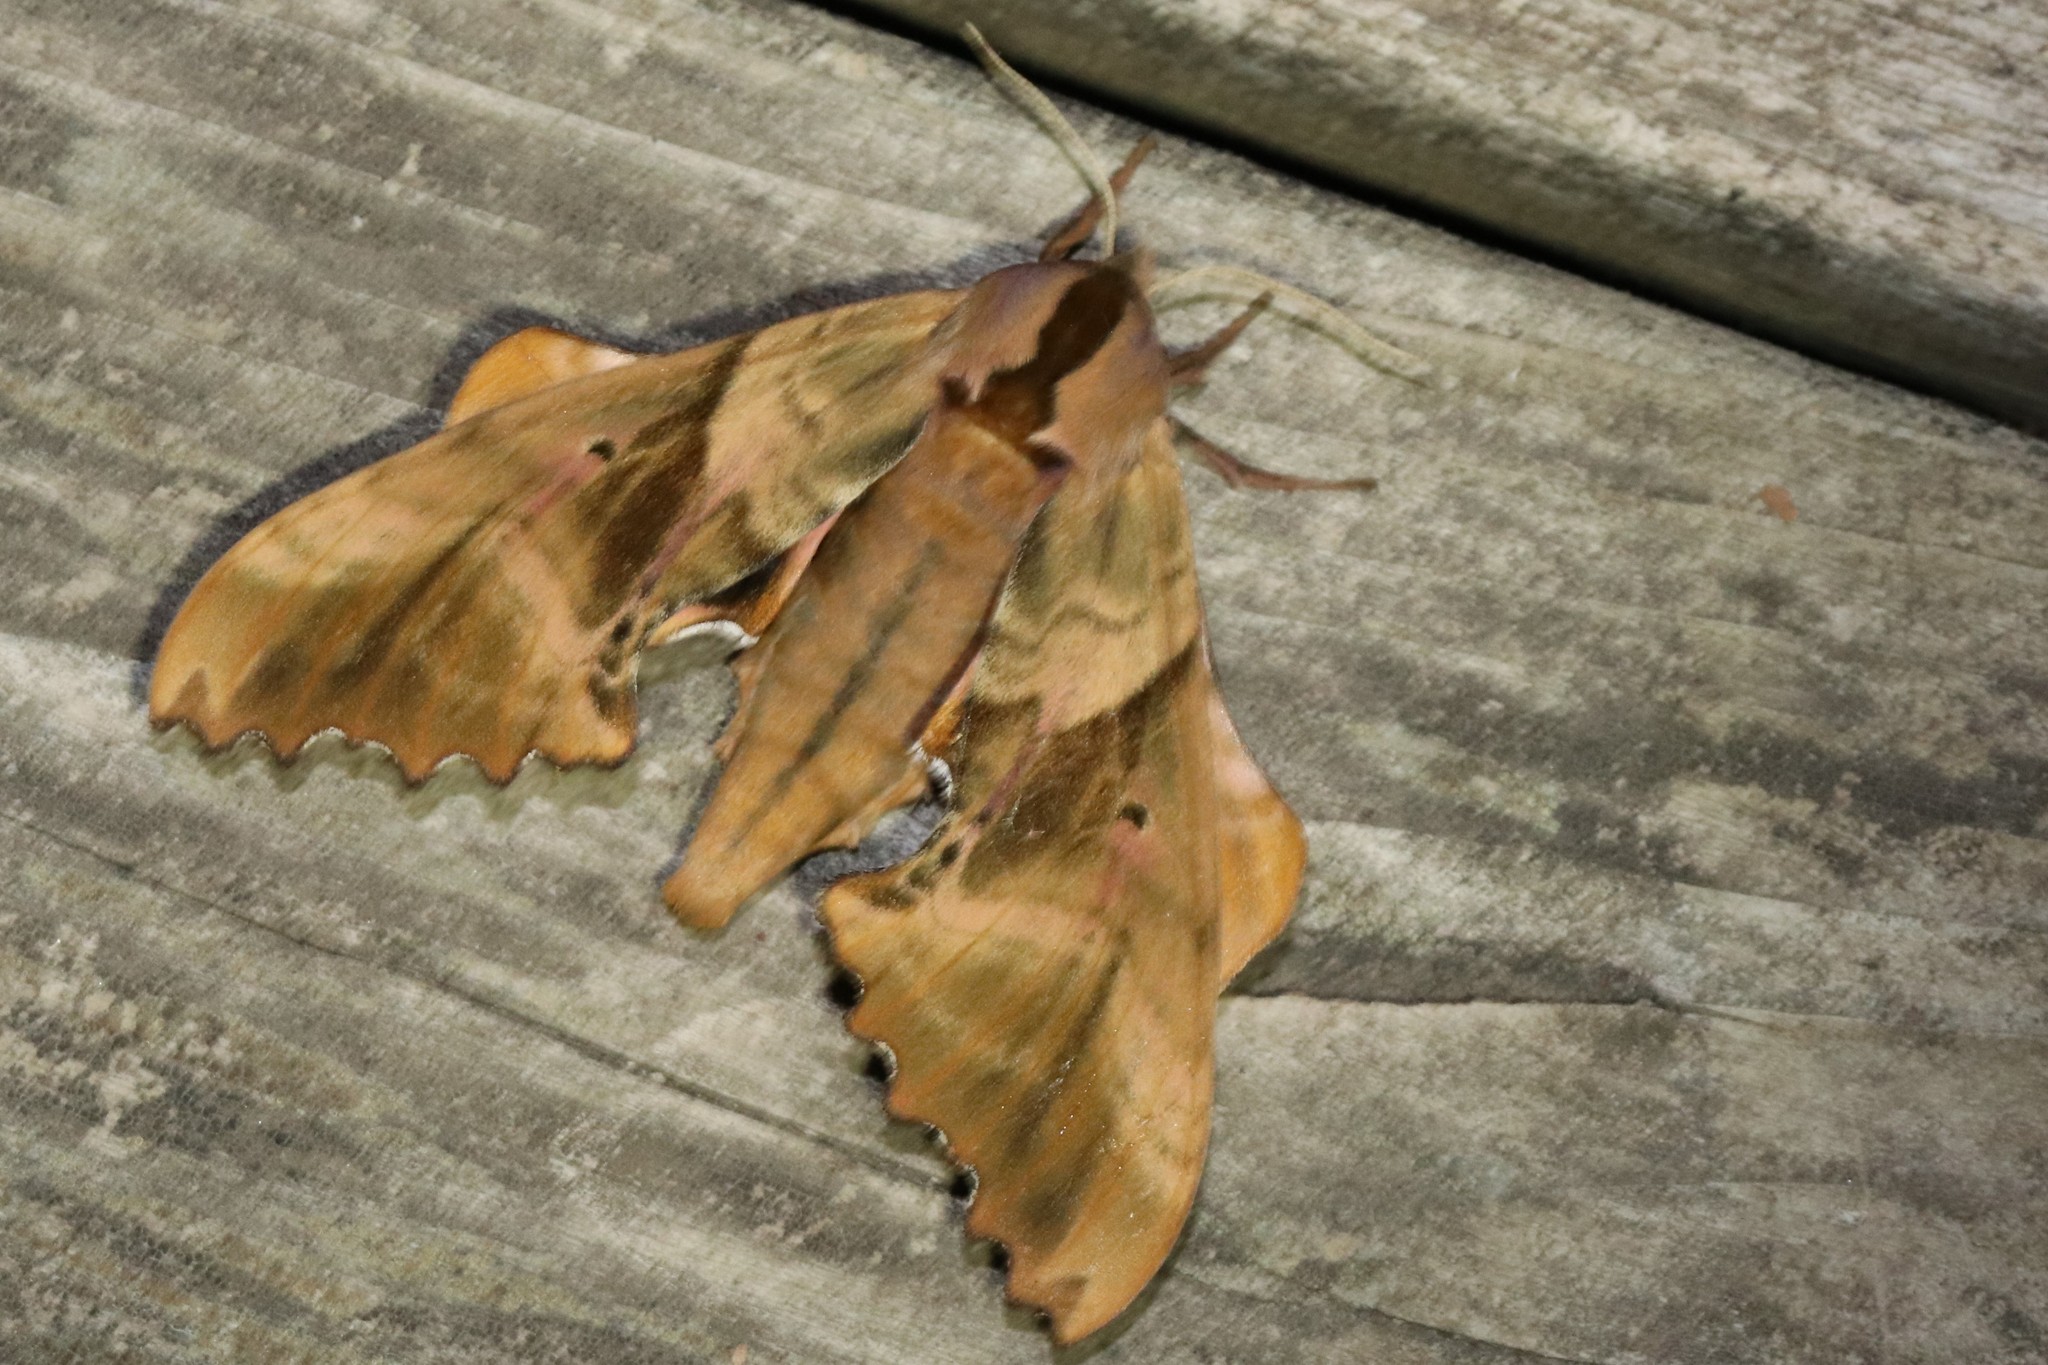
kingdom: Animalia
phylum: Arthropoda
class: Insecta
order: Lepidoptera
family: Sphingidae
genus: Paonias
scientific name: Paonias excaecata
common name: Blind-eyed sphinx
